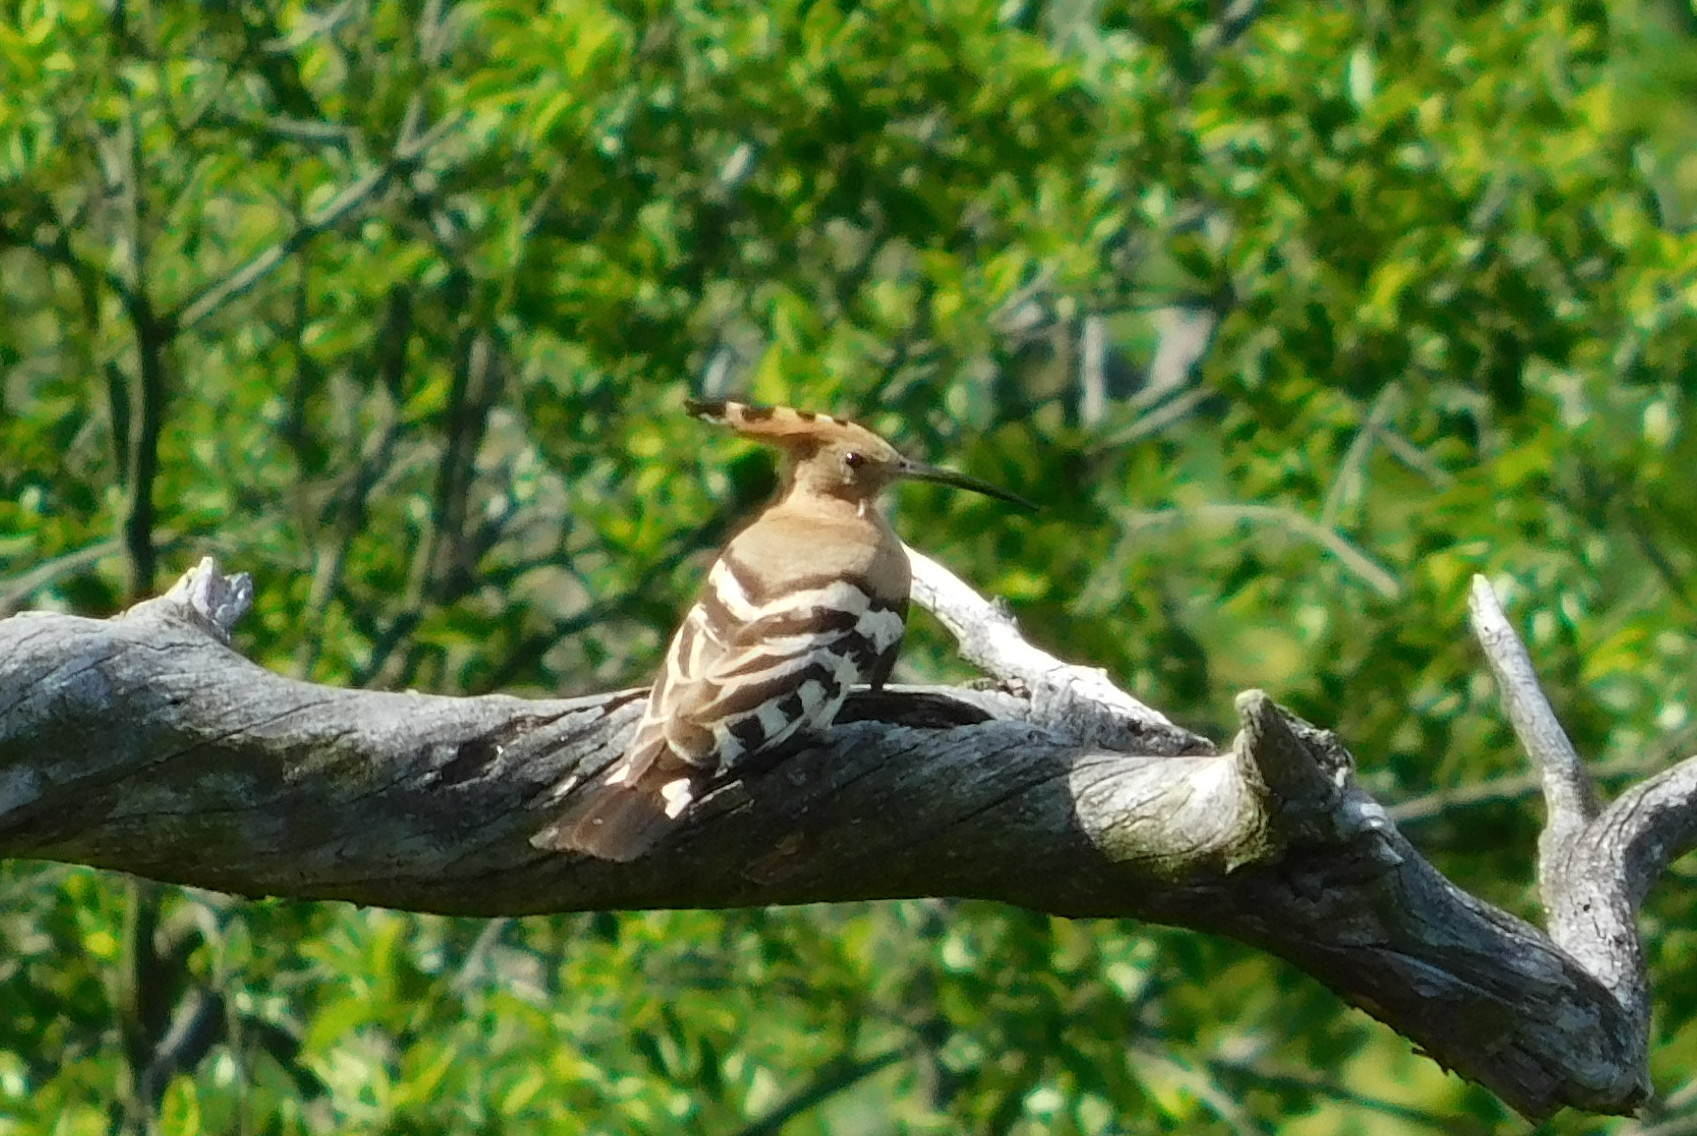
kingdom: Animalia
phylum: Chordata
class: Aves
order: Bucerotiformes
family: Upupidae
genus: Upupa
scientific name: Upupa epops
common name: Eurasian hoopoe
